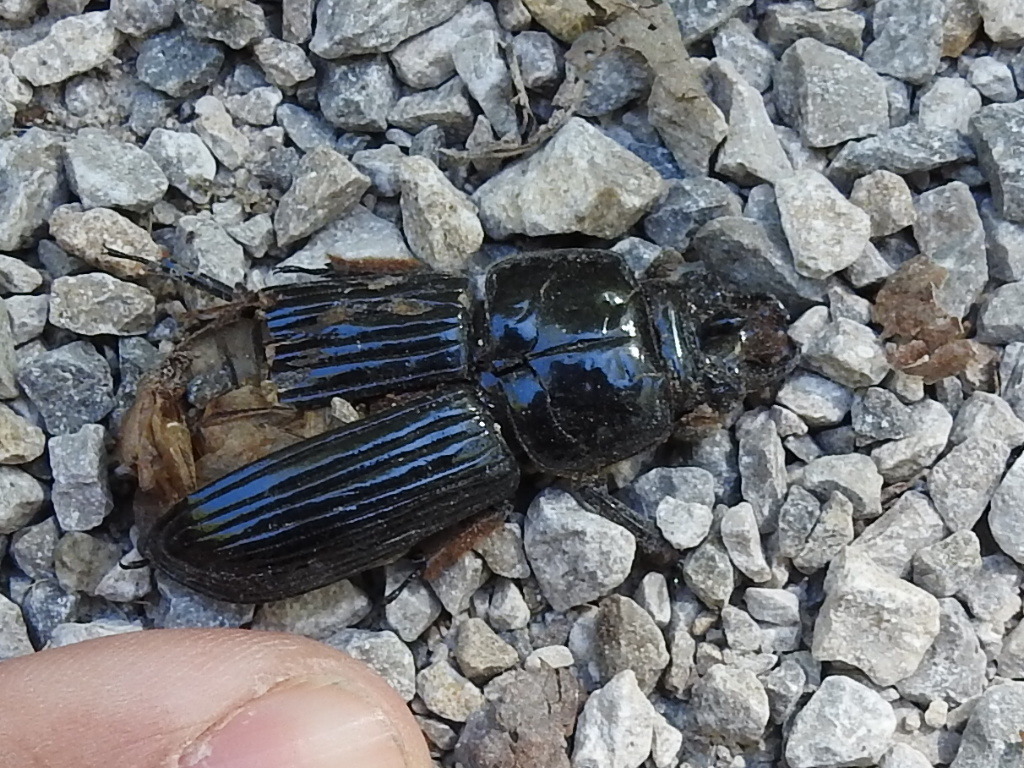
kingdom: Animalia
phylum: Arthropoda
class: Insecta
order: Coleoptera
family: Passalidae
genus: Odontotaenius
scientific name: Odontotaenius disjunctus
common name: Patent leather beetle
